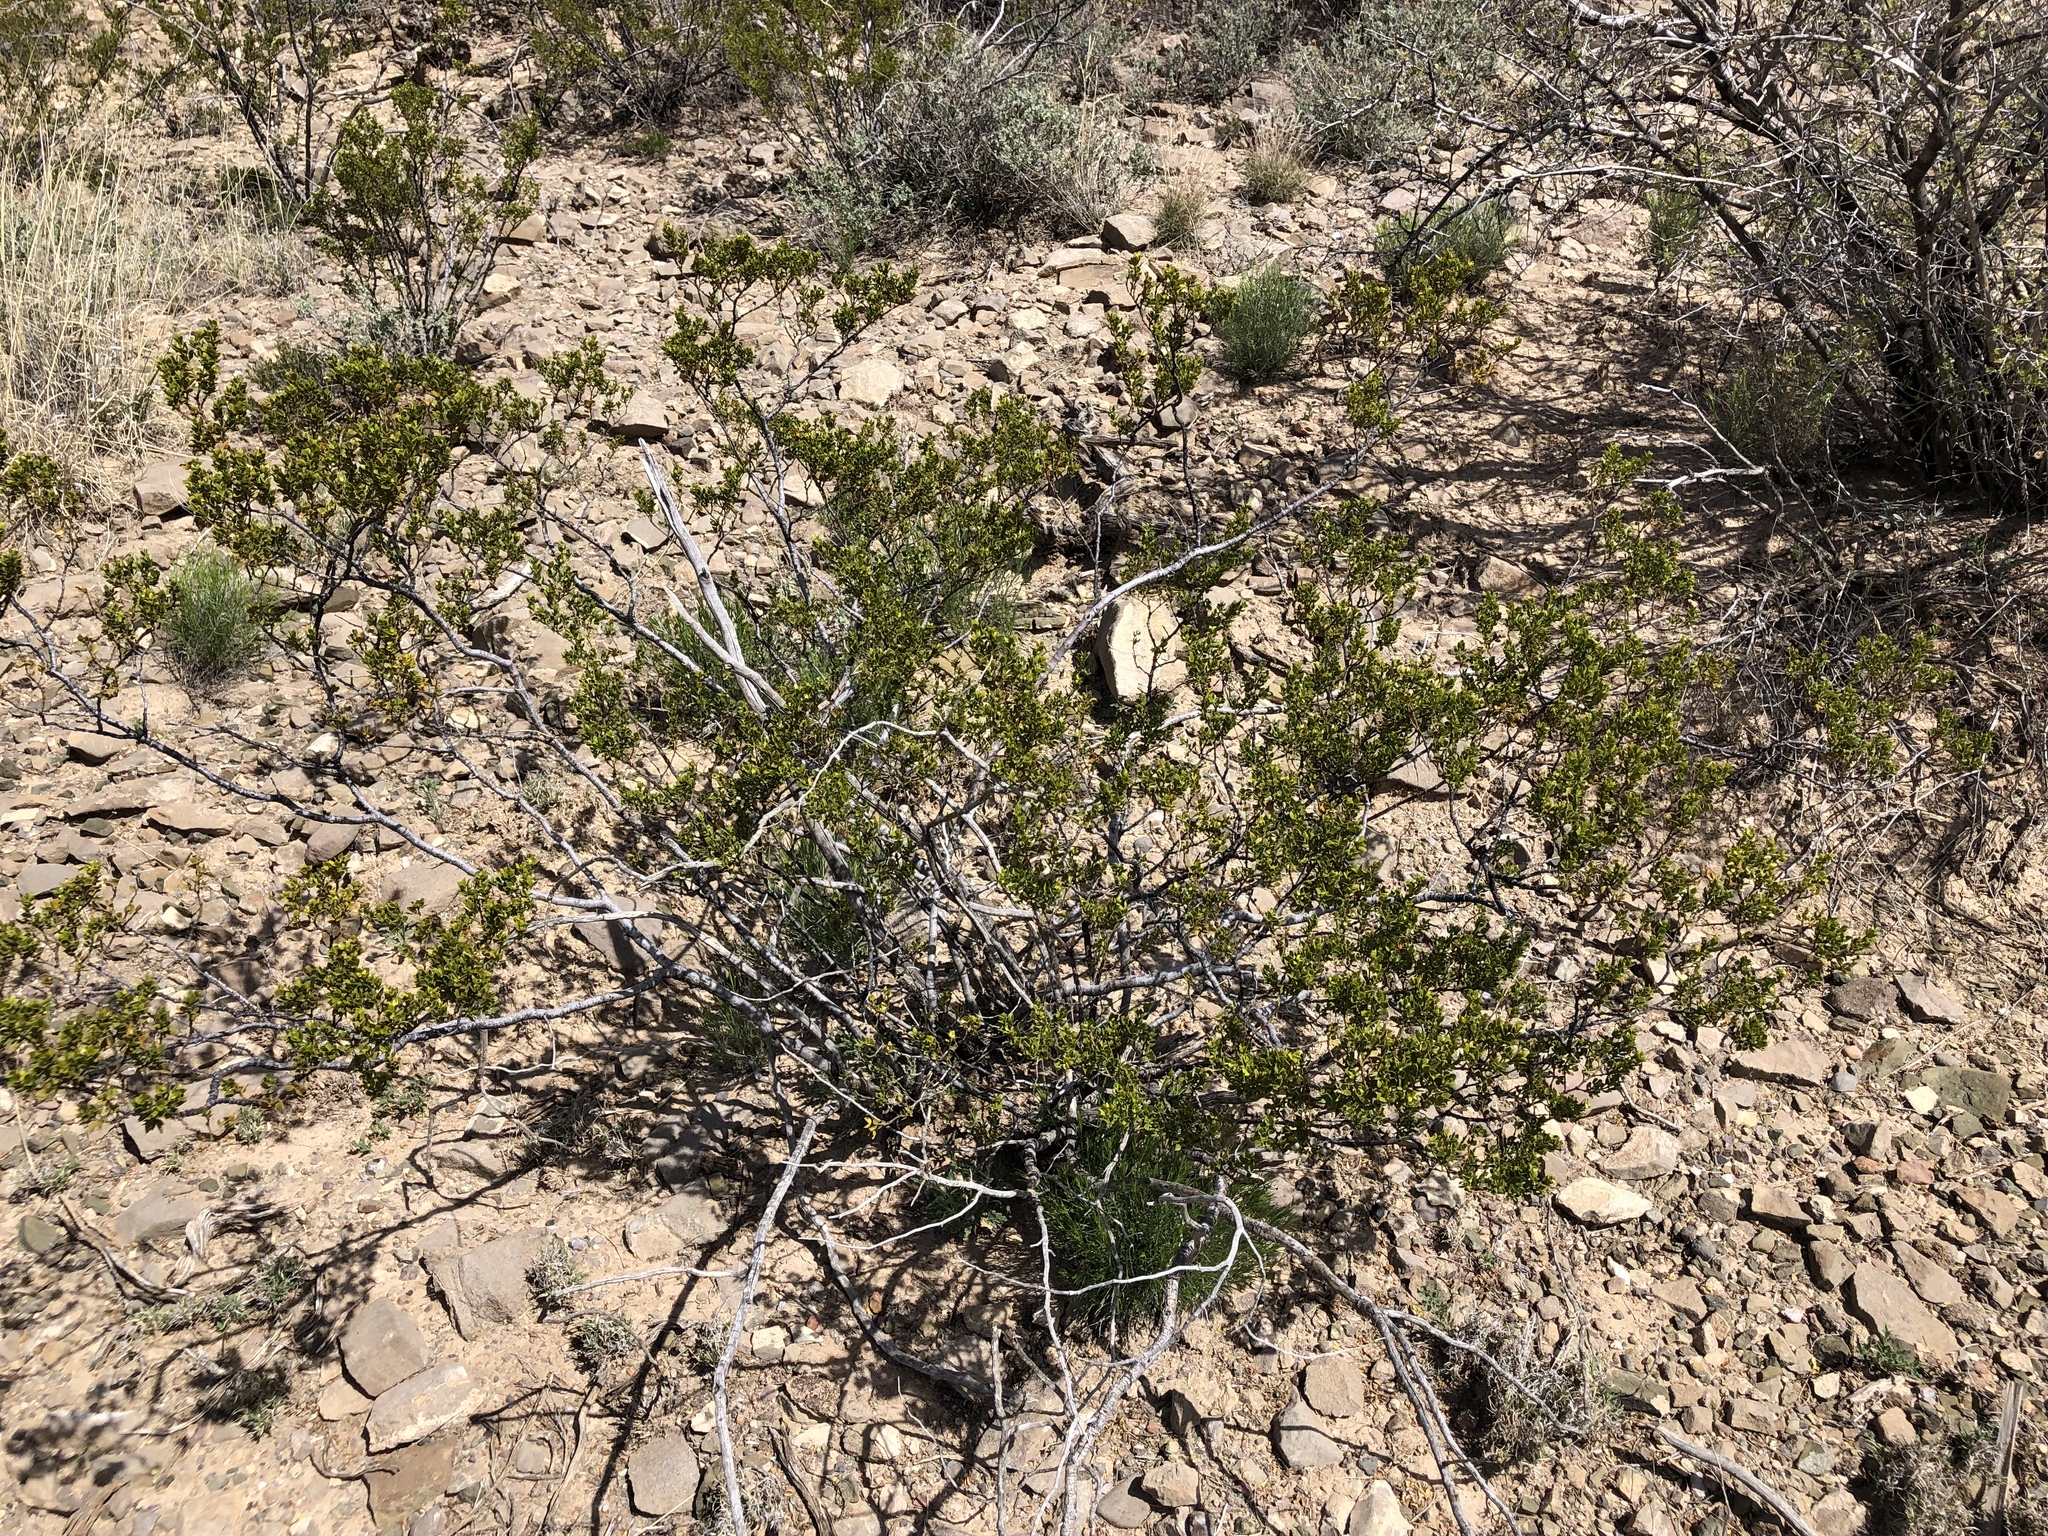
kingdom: Plantae
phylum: Tracheophyta
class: Magnoliopsida
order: Zygophyllales
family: Zygophyllaceae
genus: Larrea
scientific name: Larrea tridentata
